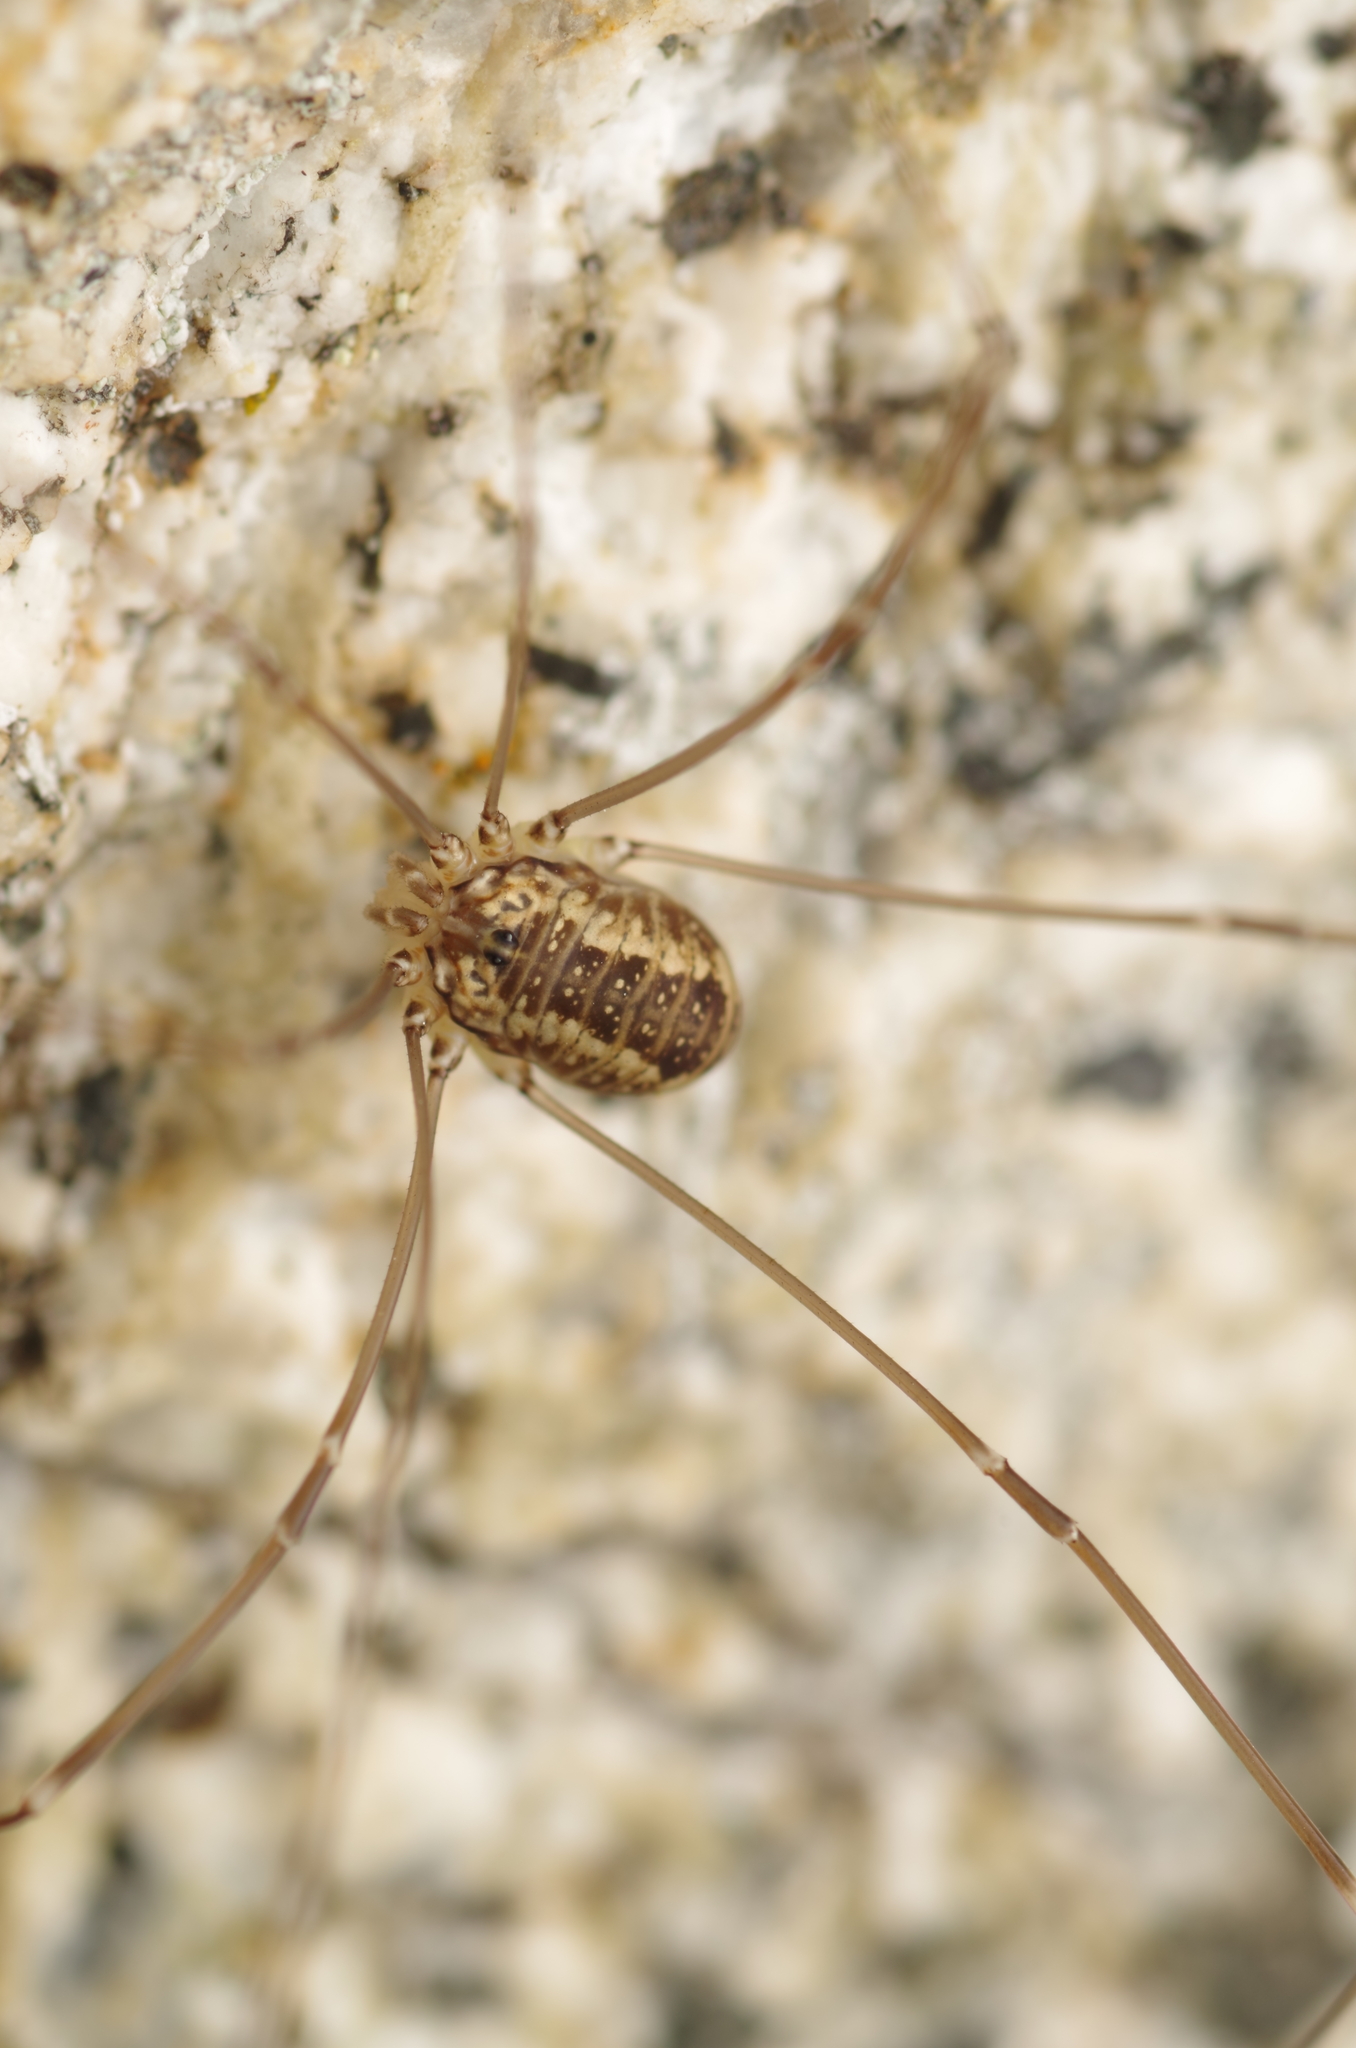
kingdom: Animalia
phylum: Arthropoda
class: Arachnida
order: Opiliones
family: Sclerosomatidae
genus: Leiobunum
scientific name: Leiobunum rotundum
